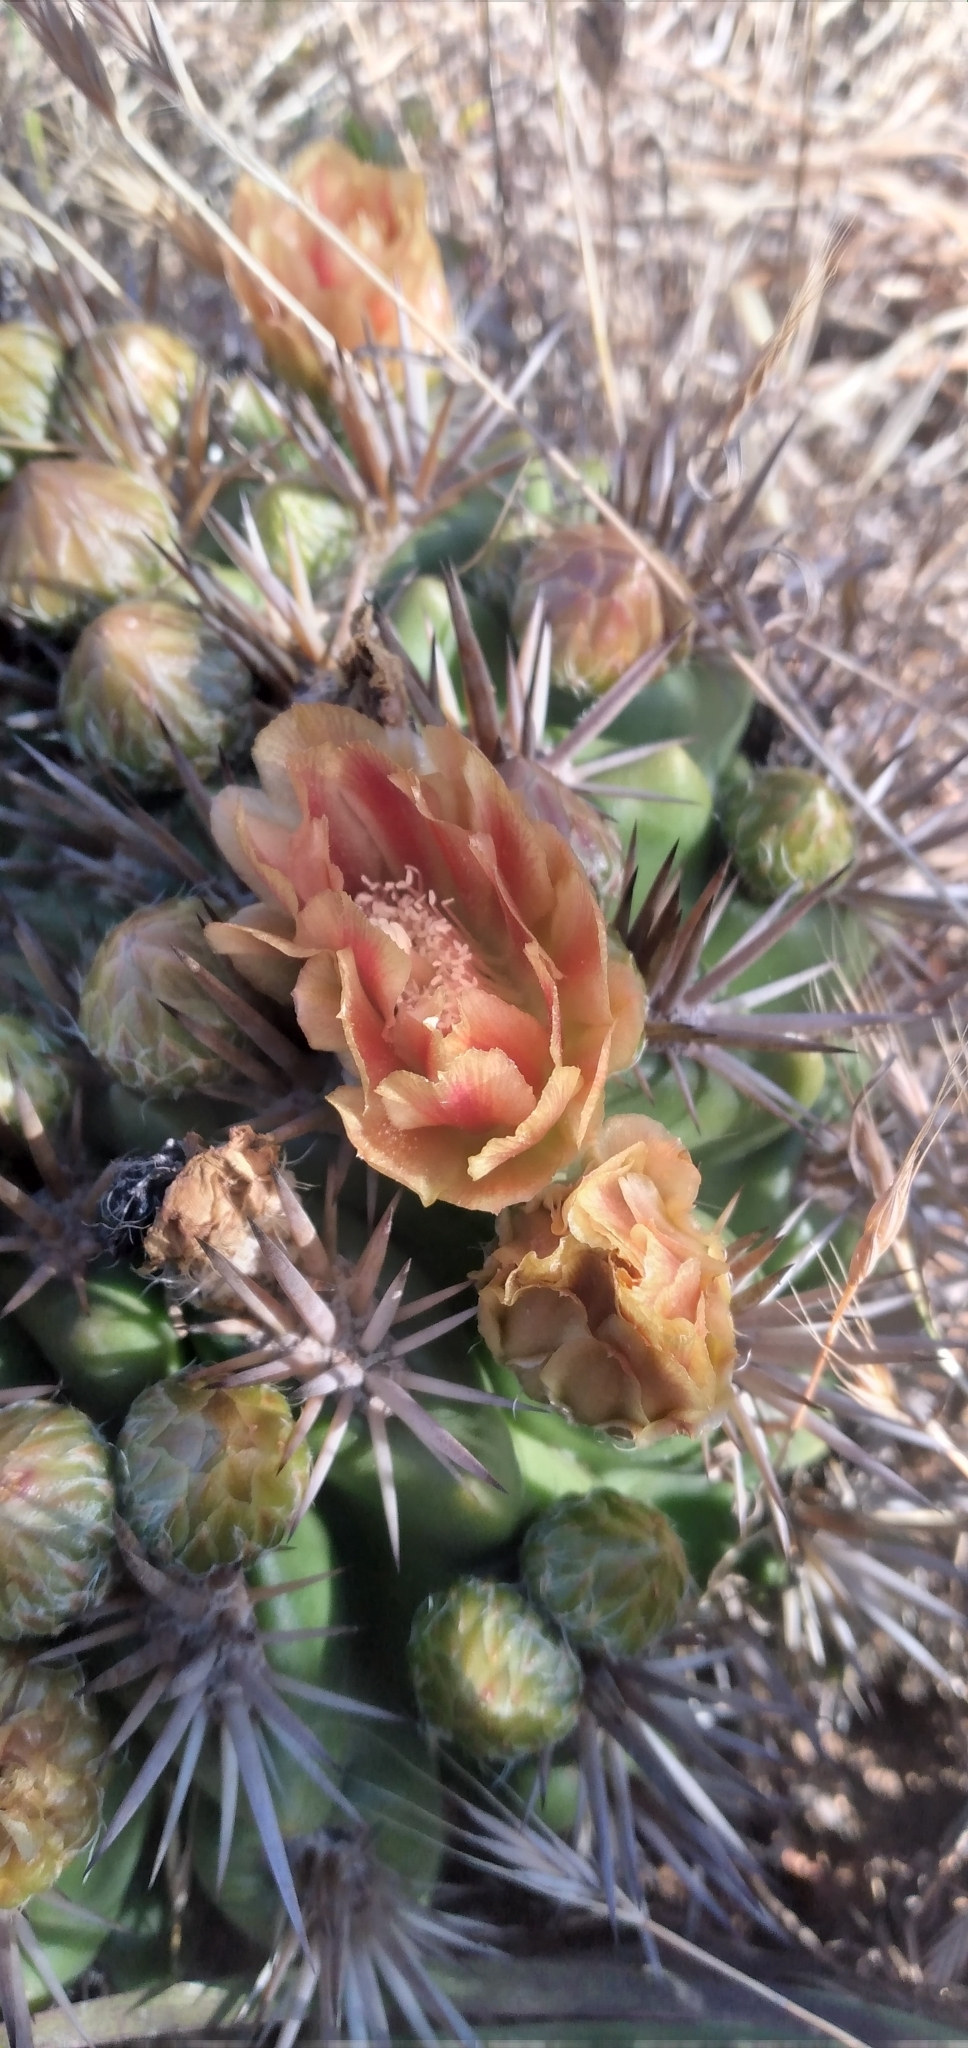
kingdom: Plantae
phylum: Tracheophyta
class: Magnoliopsida
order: Caryophyllales
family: Cactaceae
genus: Eriosyce
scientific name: Eriosyce
